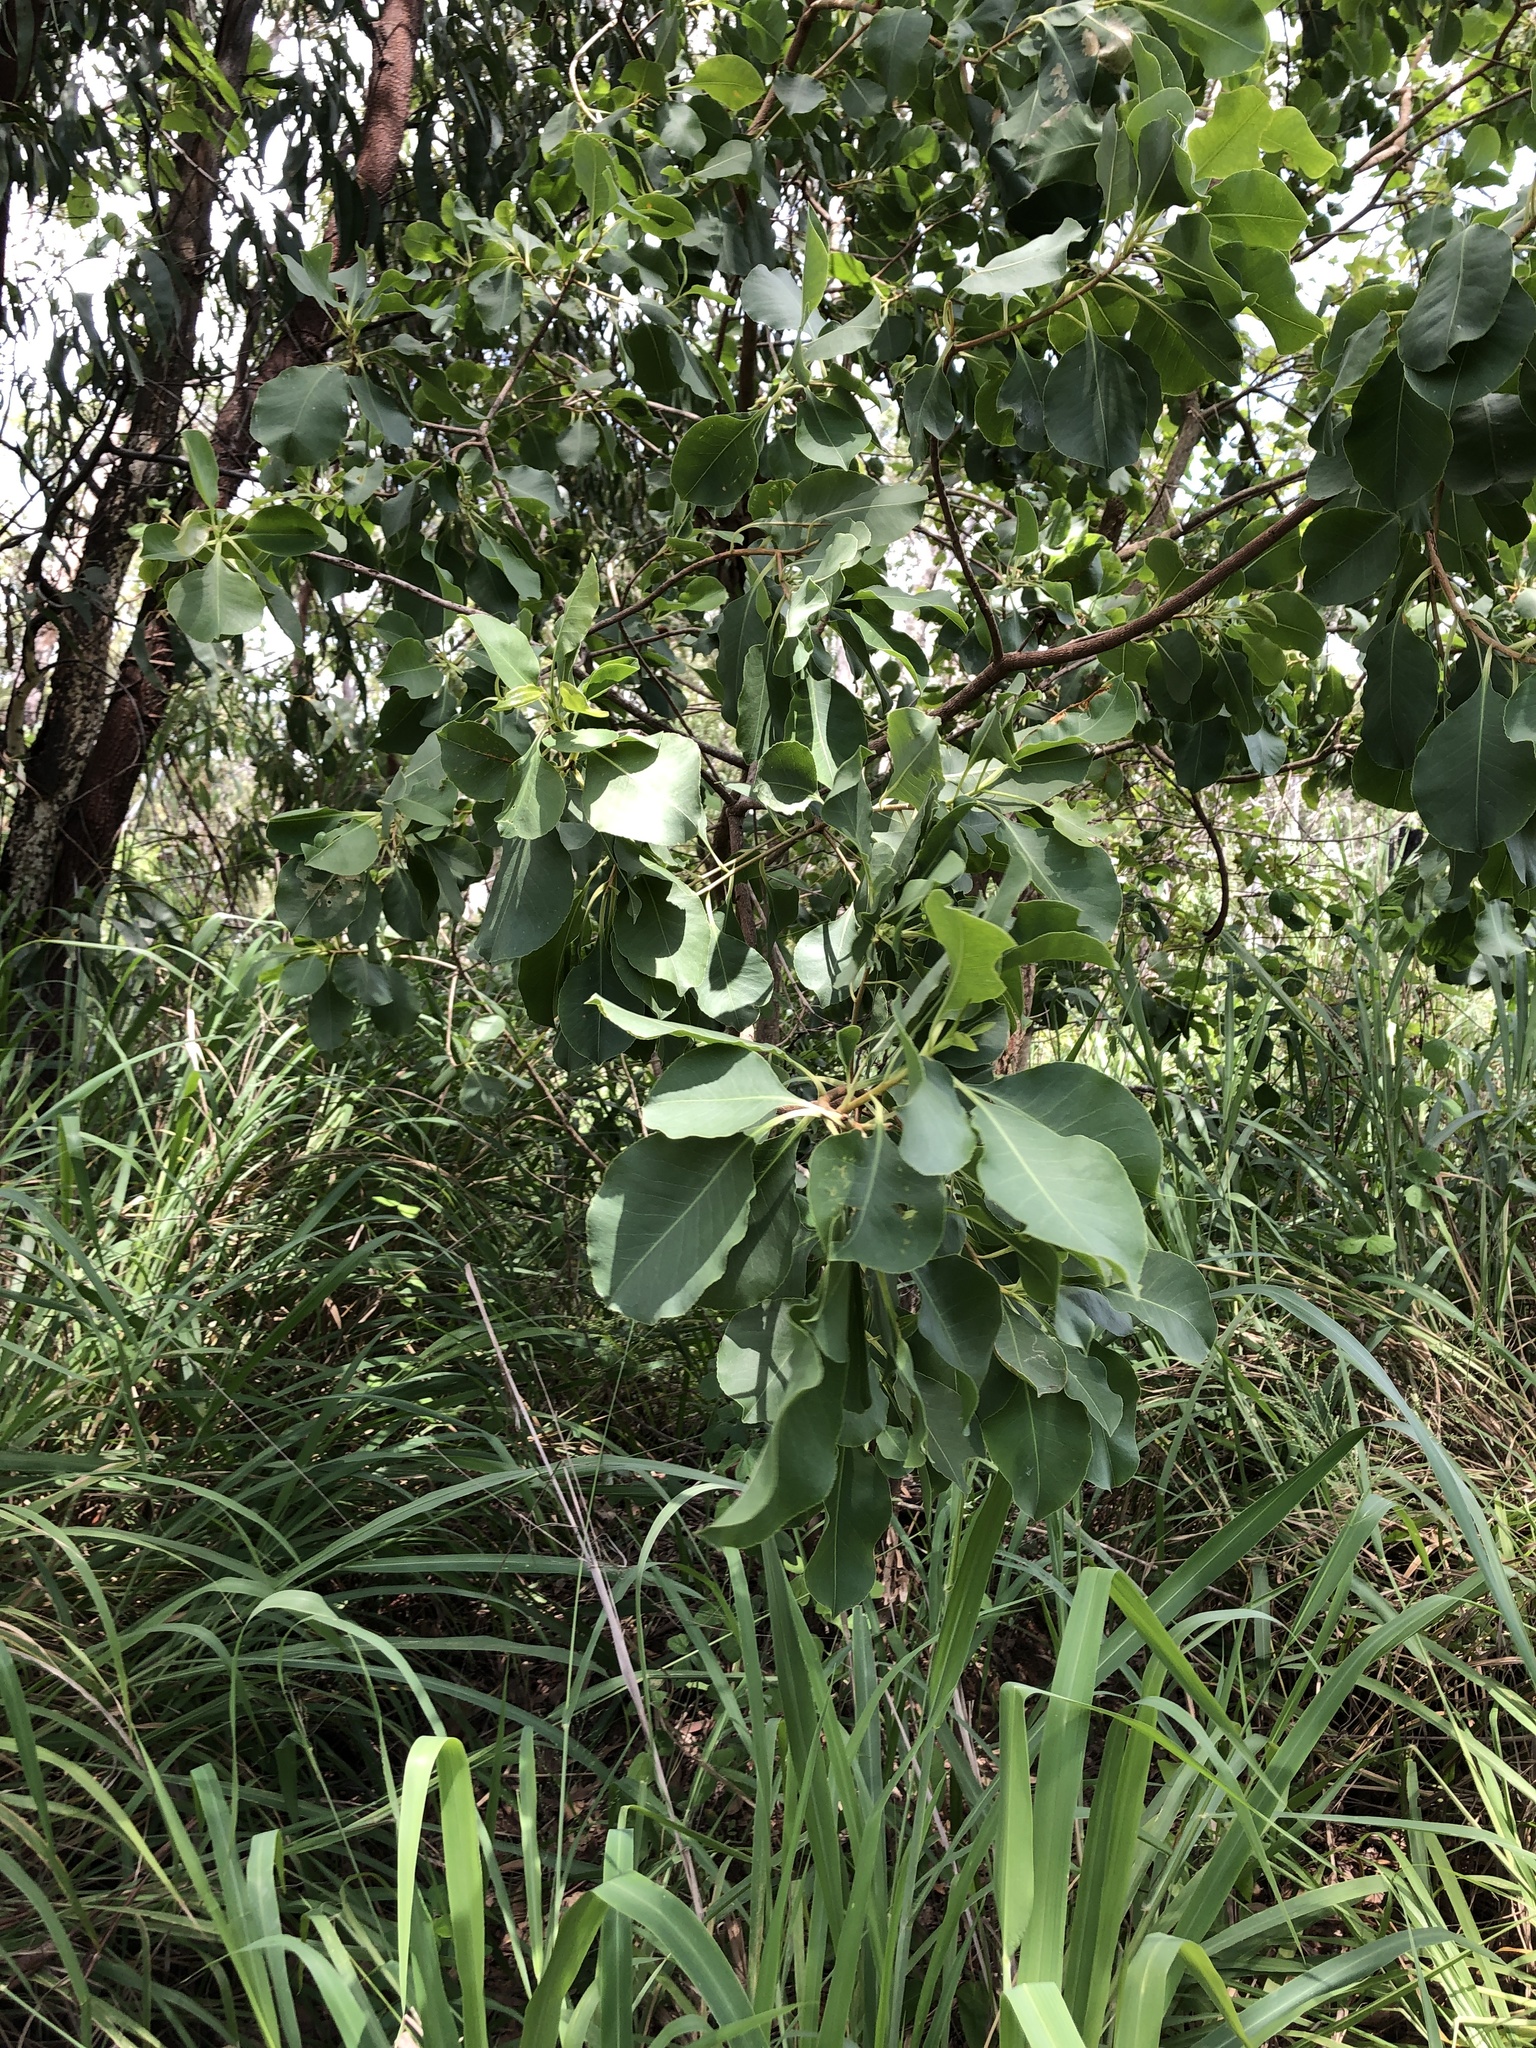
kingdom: Plantae
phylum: Tracheophyta
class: Magnoliopsida
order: Ericales
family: Lecythidaceae
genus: Planchonia
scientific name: Planchonia careya
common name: Cockatoo-apple
